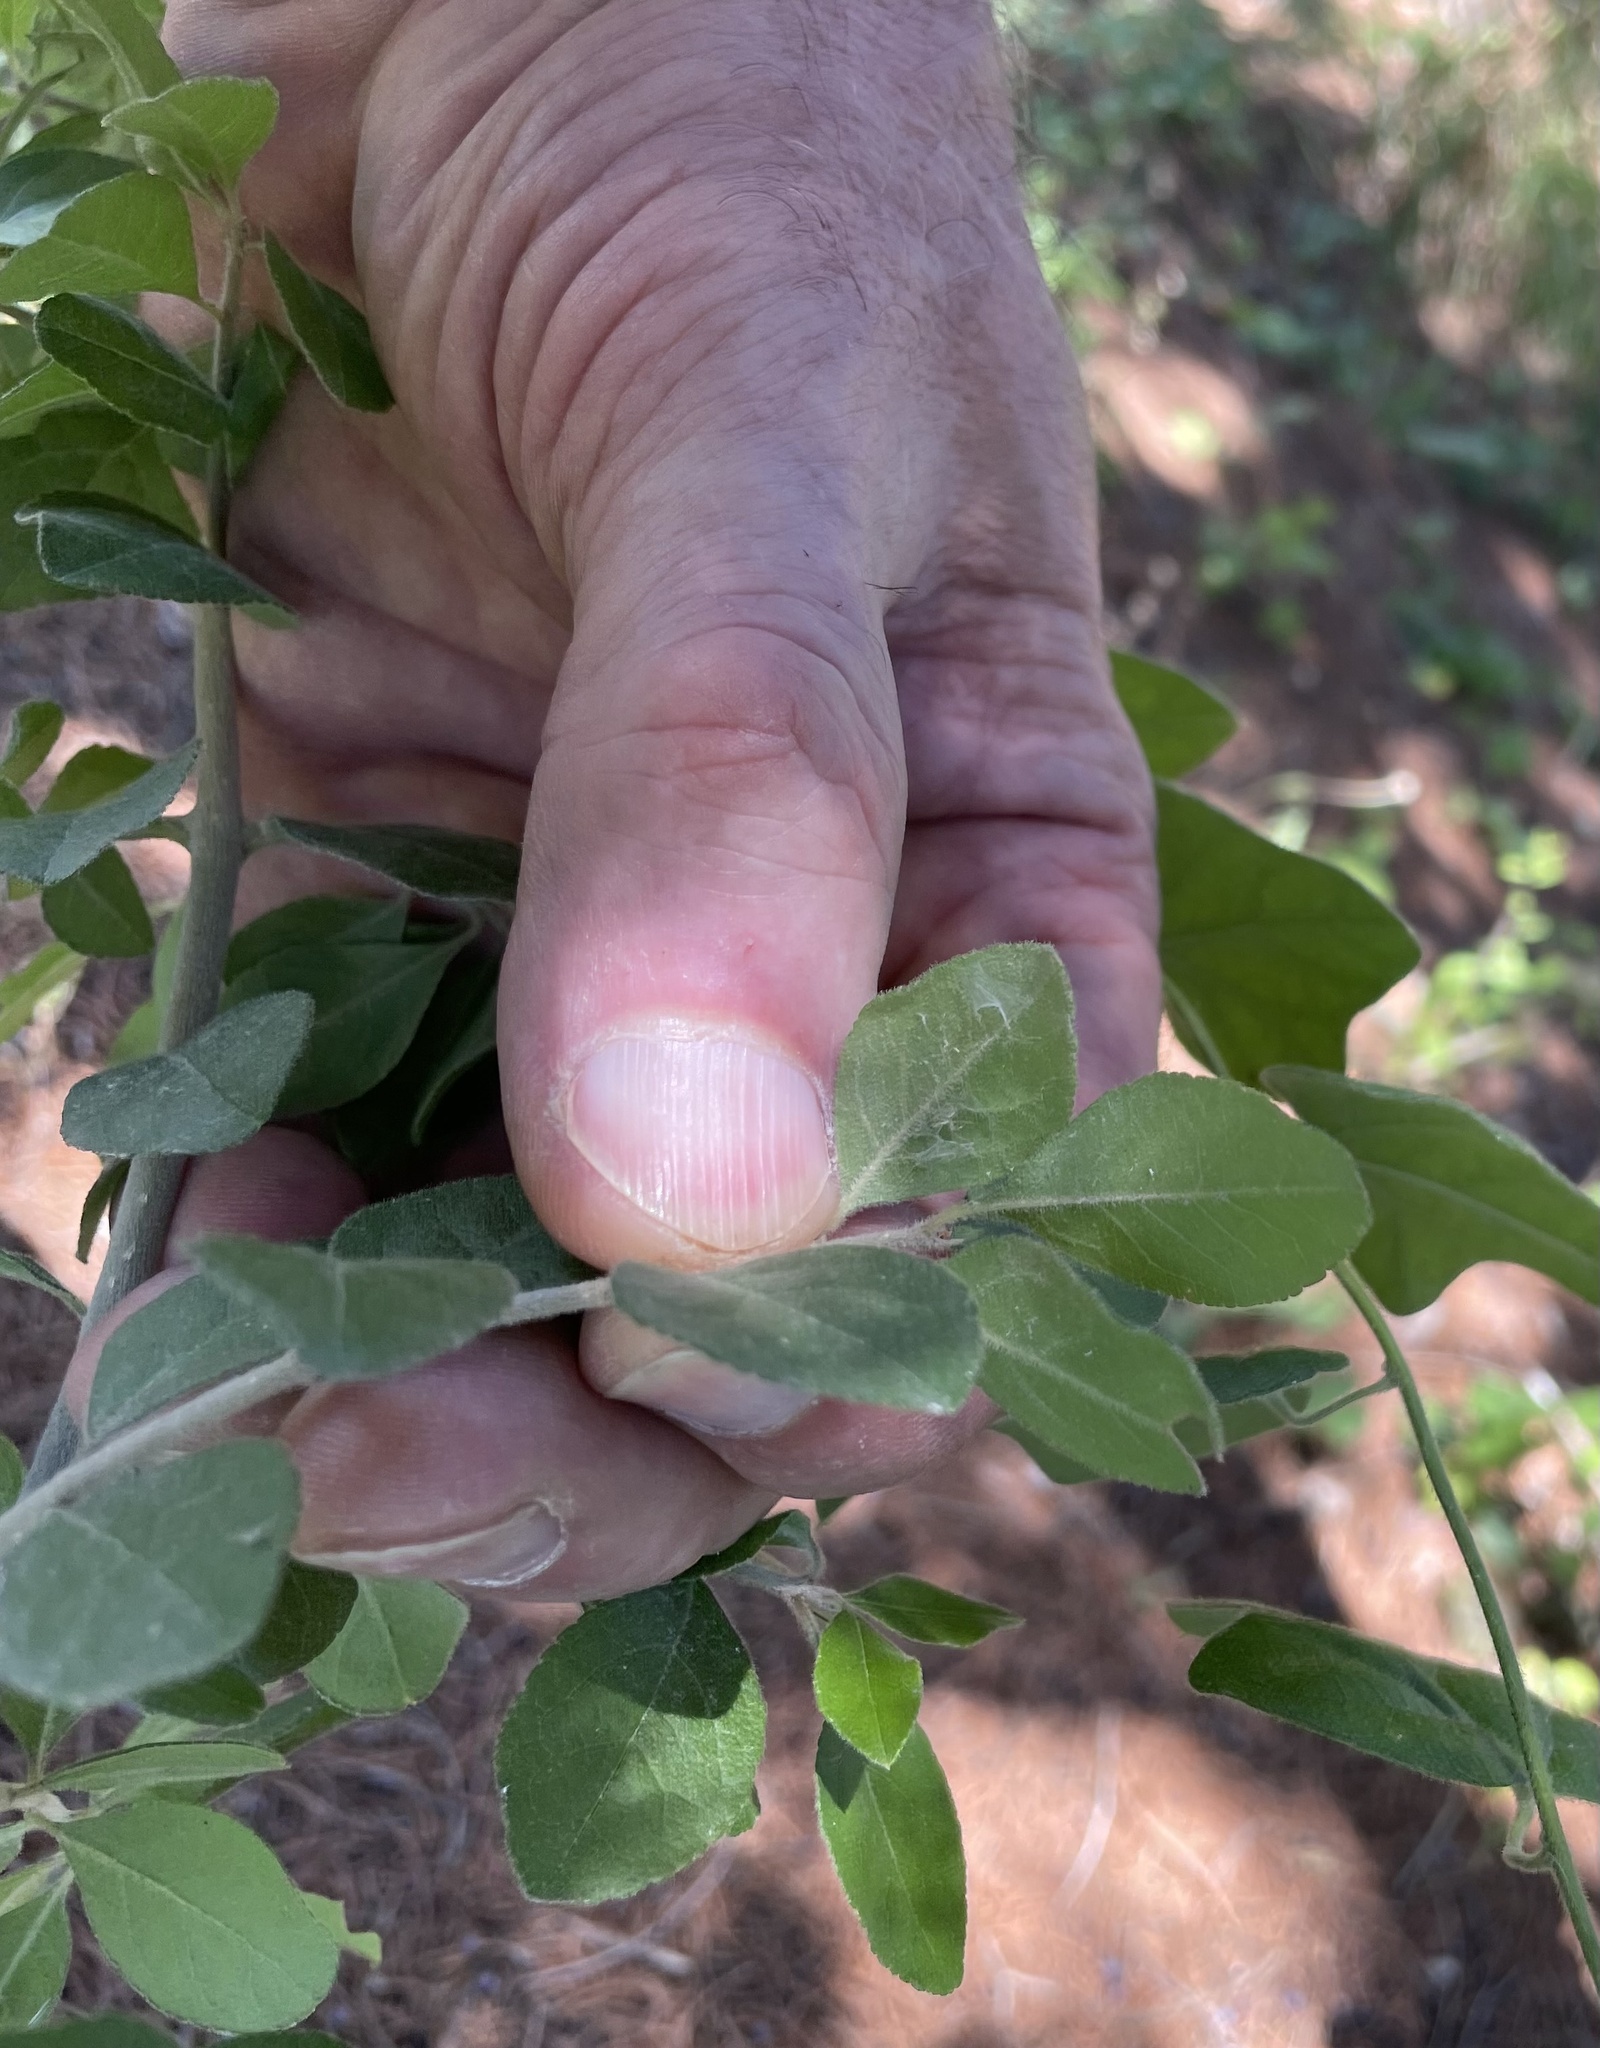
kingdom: Plantae
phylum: Tracheophyta
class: Magnoliopsida
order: Lamiales
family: Oleaceae
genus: Forestiera
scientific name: Forestiera pubescens
